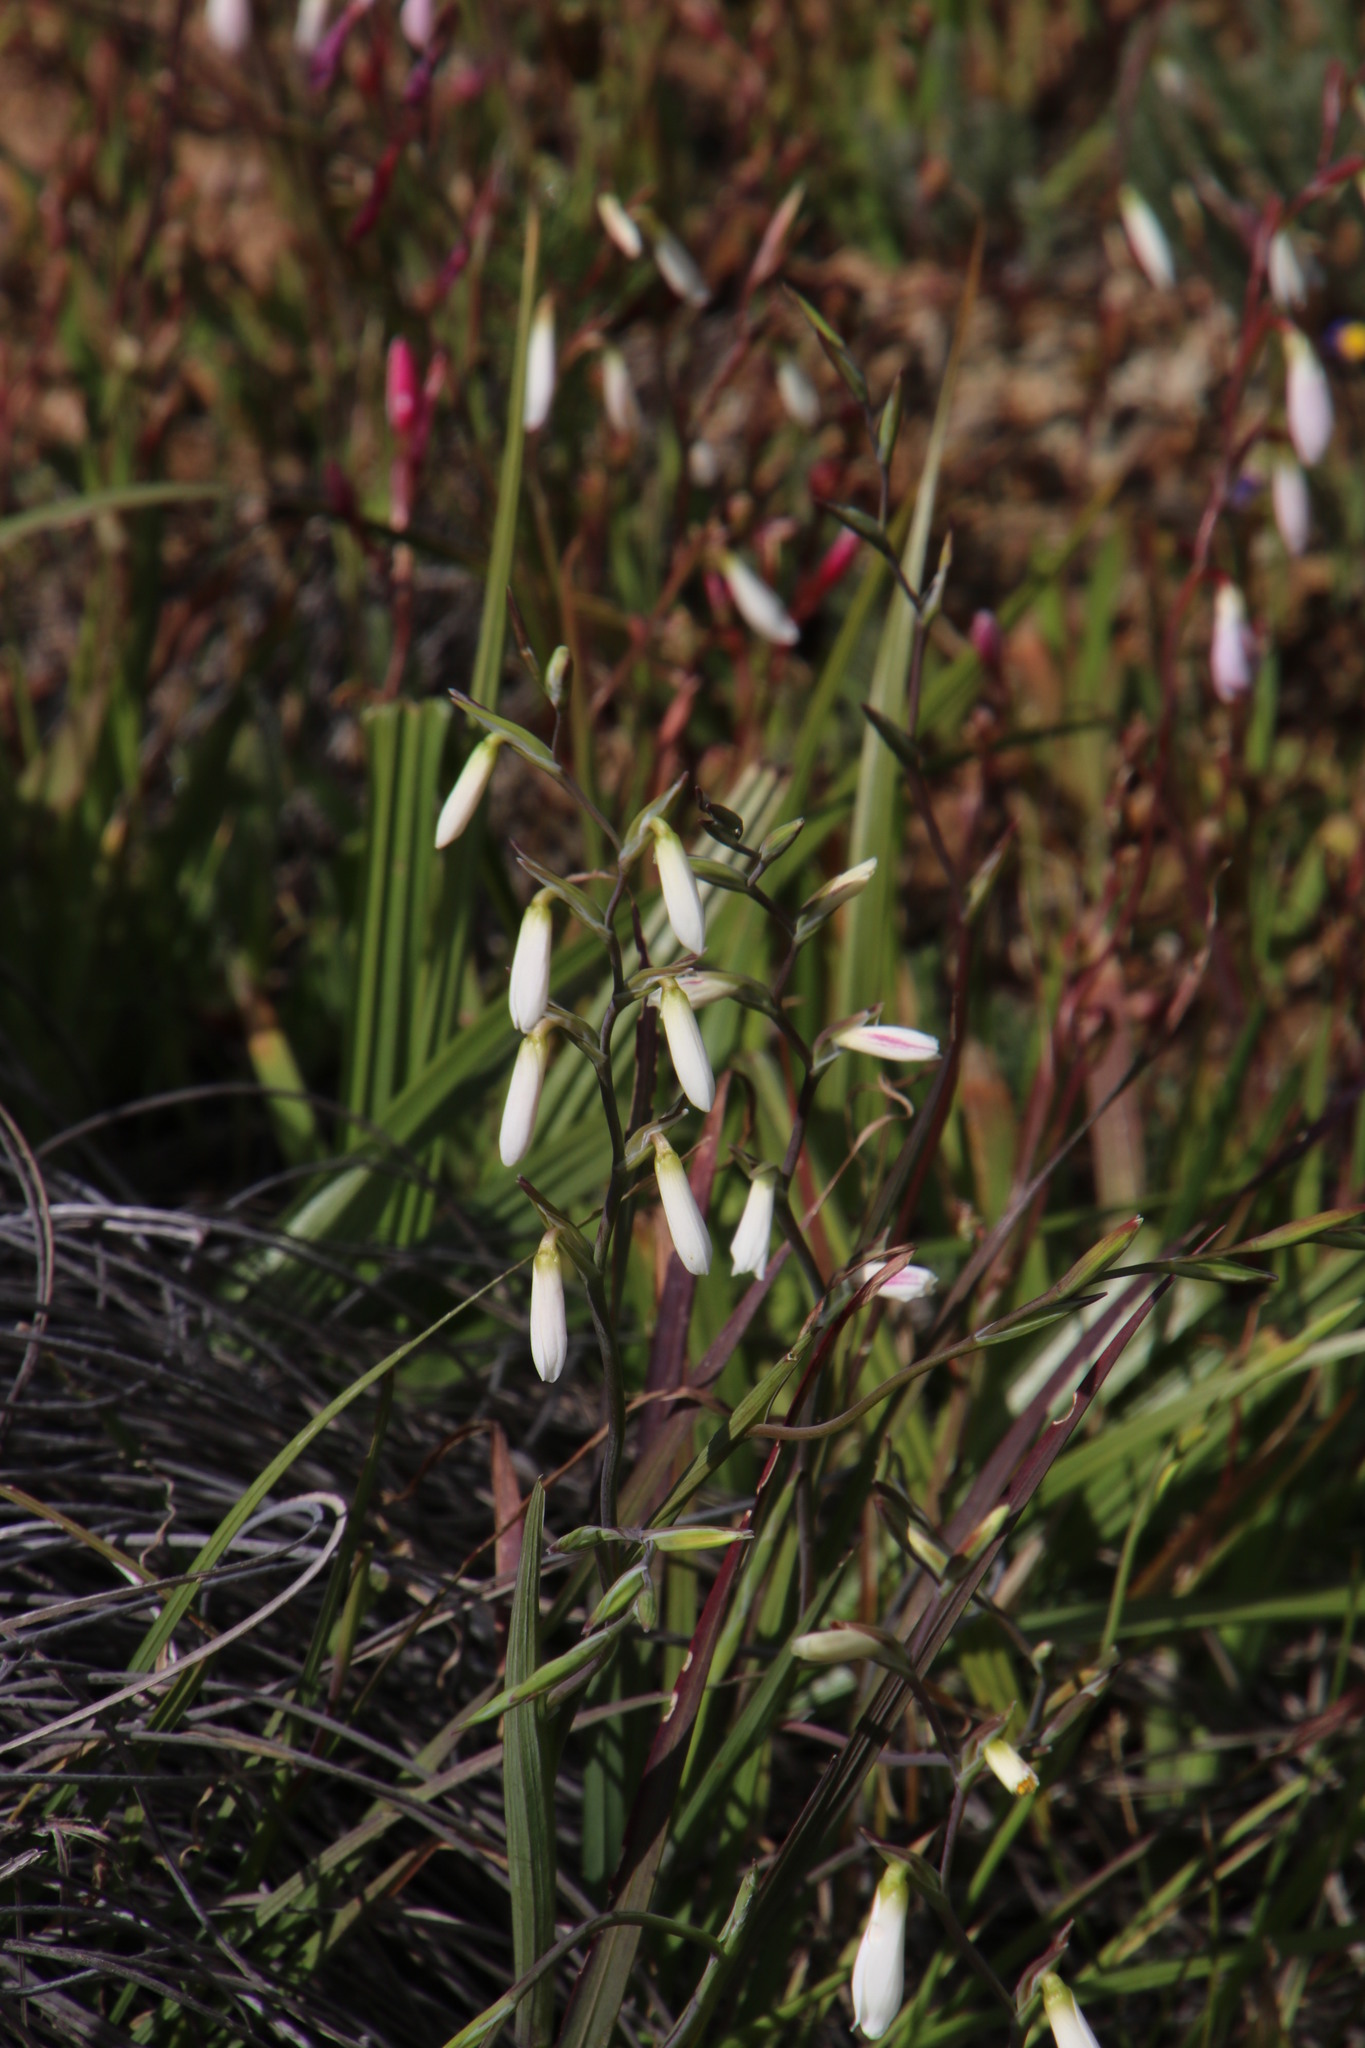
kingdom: Plantae
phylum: Tracheophyta
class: Liliopsida
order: Asparagales
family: Iridaceae
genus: Hesperantha
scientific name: Hesperantha bachmannii
